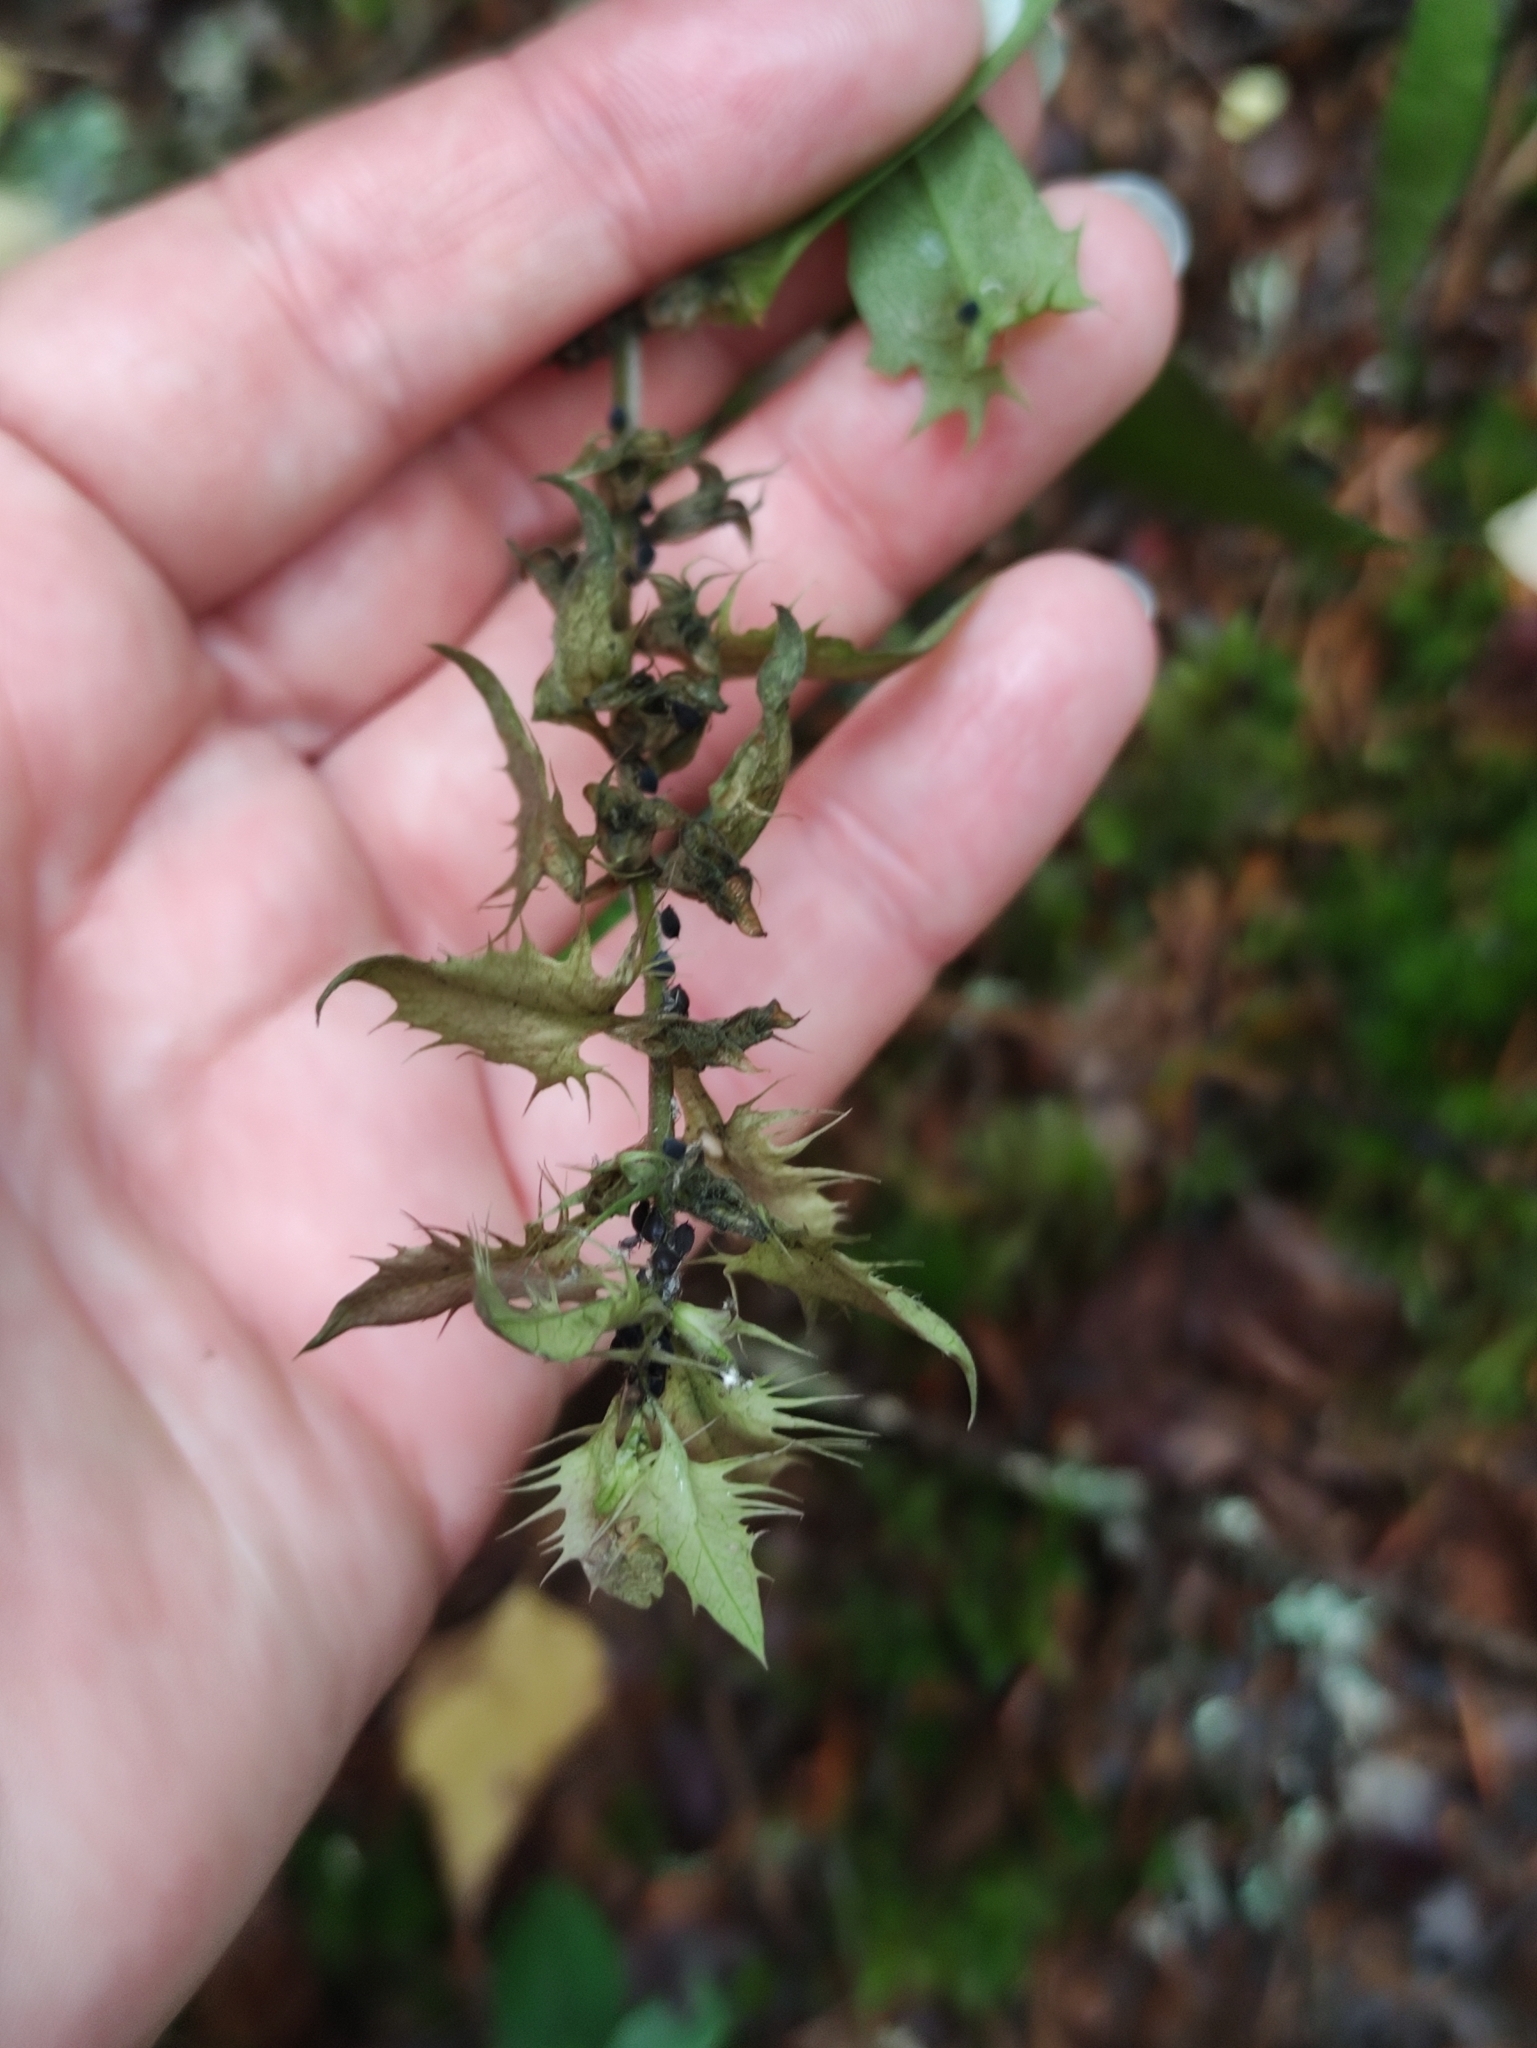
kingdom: Plantae
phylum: Tracheophyta
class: Magnoliopsida
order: Lamiales
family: Orobanchaceae
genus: Melampyrum
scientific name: Melampyrum nemorosum
